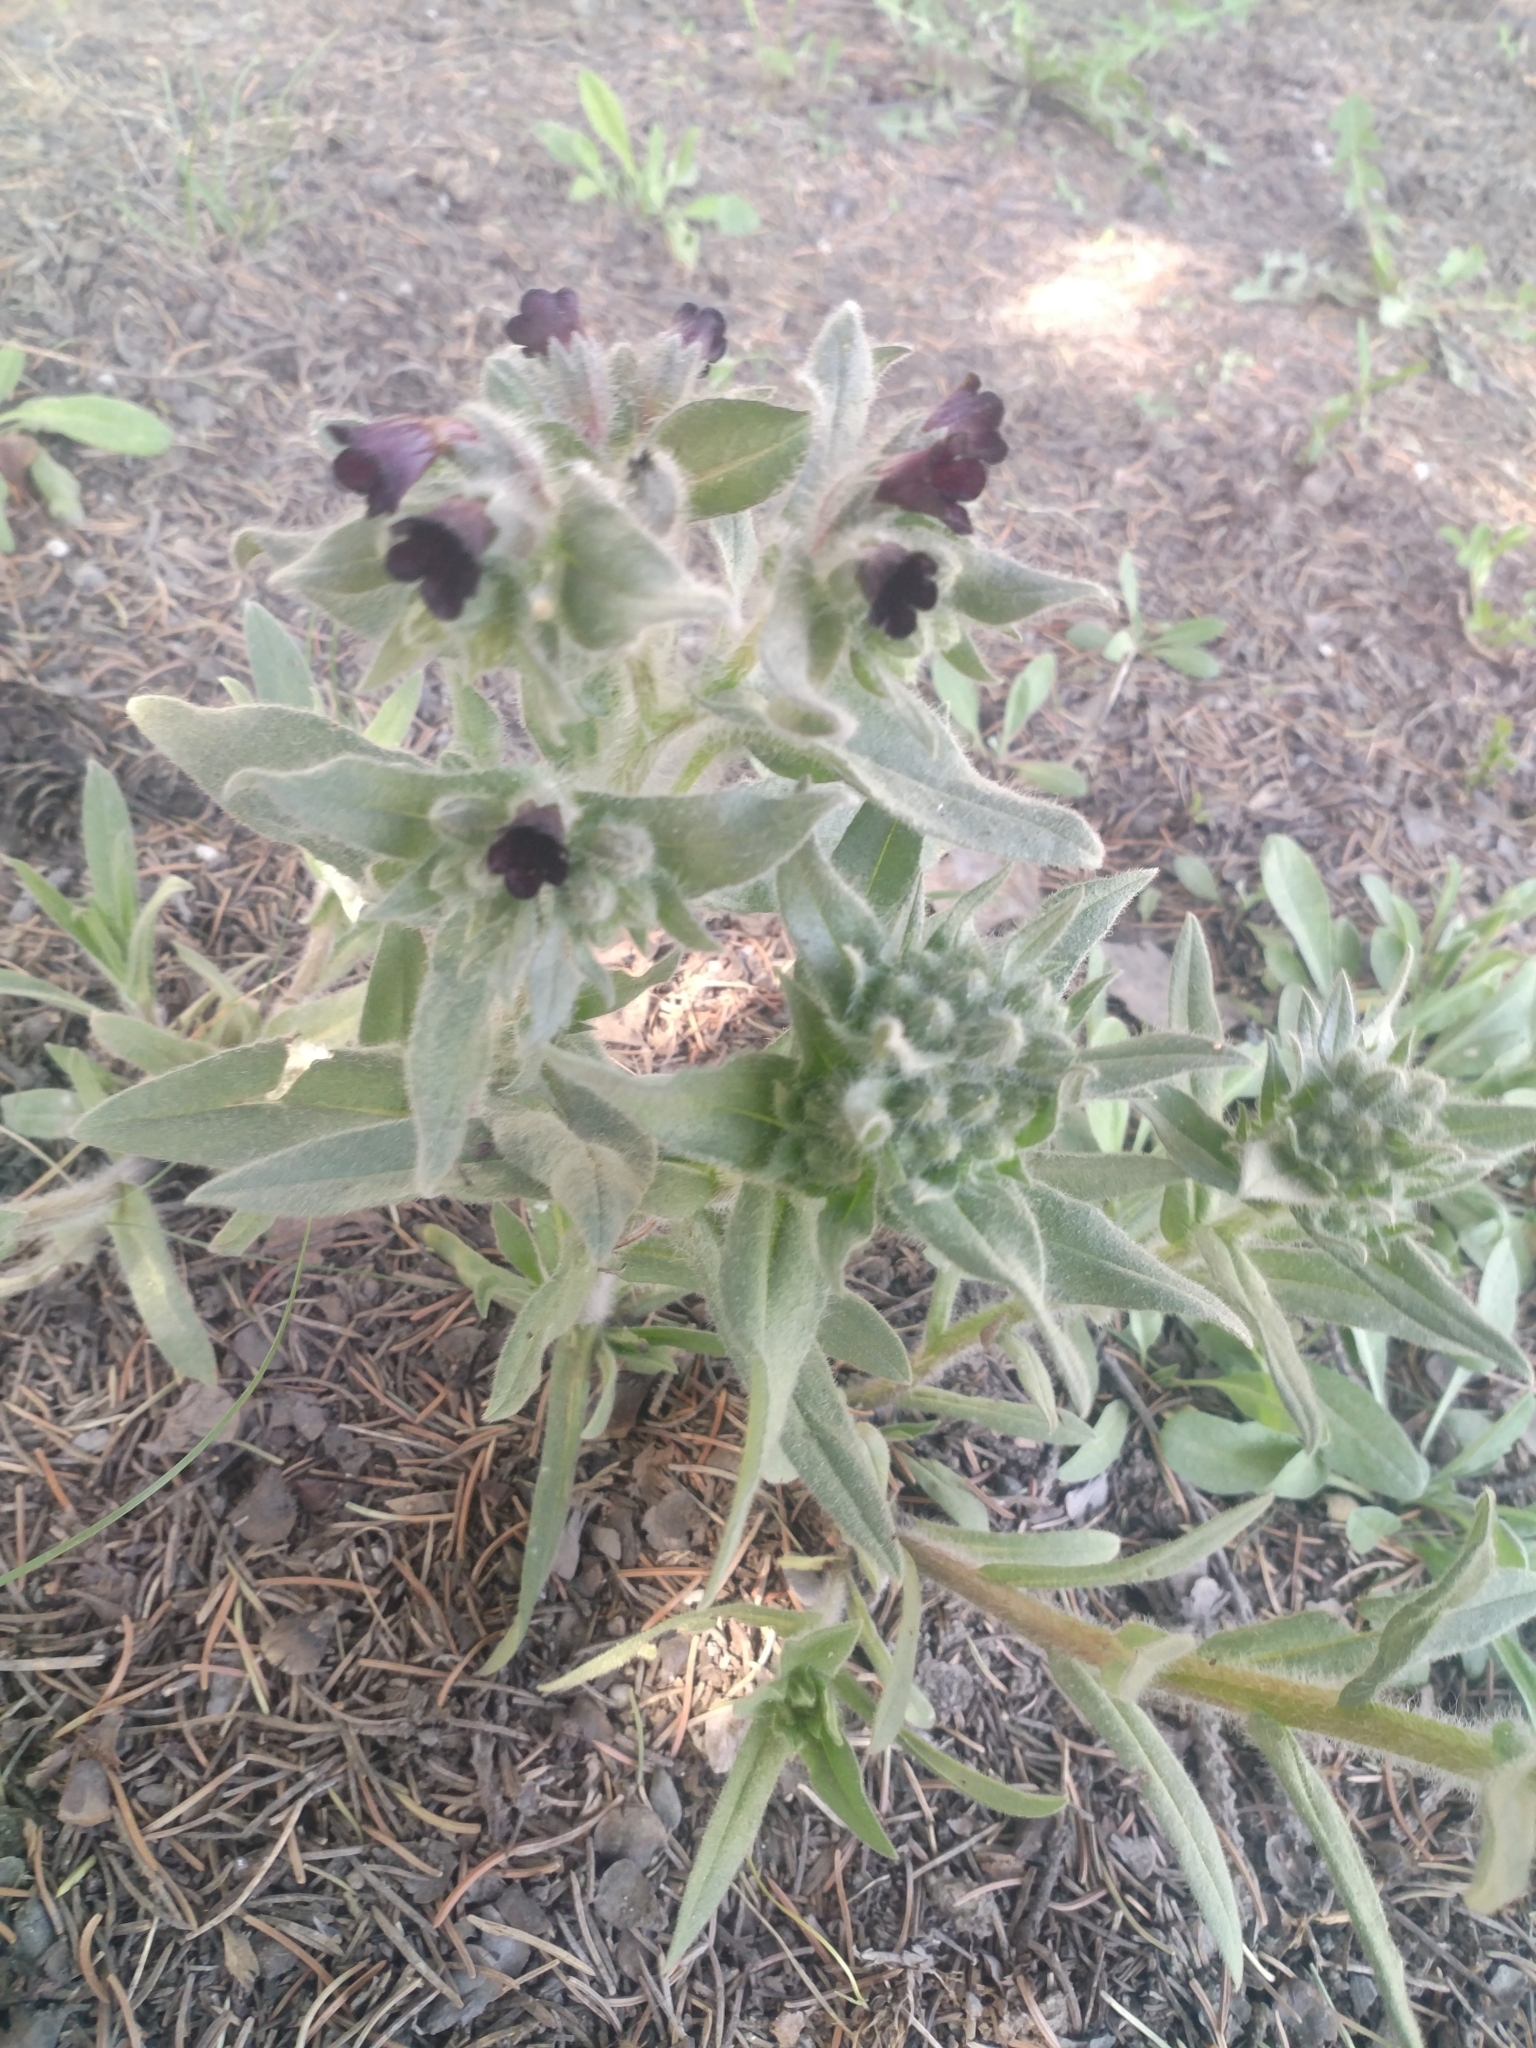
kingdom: Plantae
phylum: Tracheophyta
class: Magnoliopsida
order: Boraginales
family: Boraginaceae
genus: Nonea
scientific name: Nonea pulla
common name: Brown nonea
